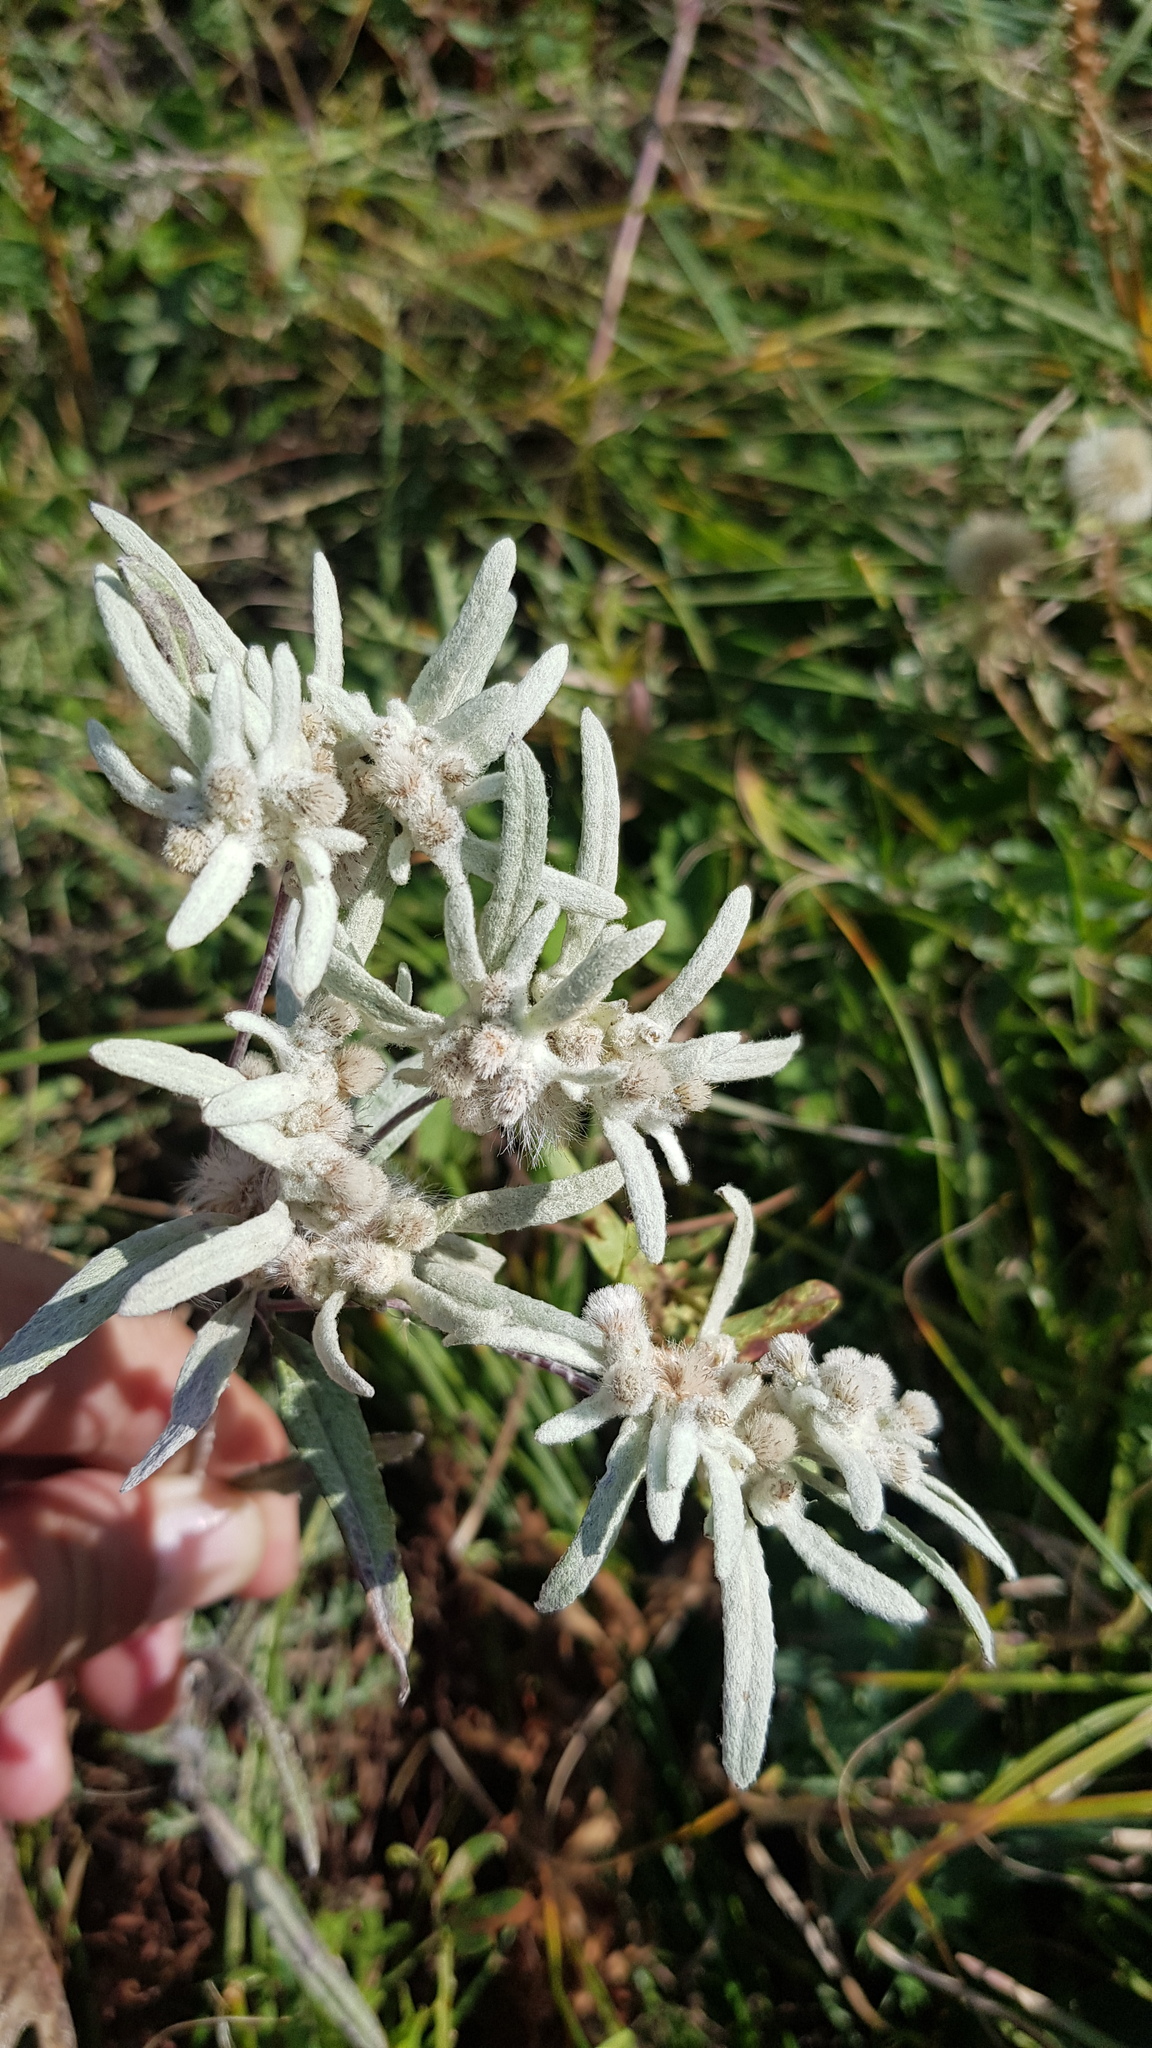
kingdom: Plantae
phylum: Tracheophyta
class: Magnoliopsida
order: Asterales
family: Asteraceae
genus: Leontopodium
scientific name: Leontopodium leontopodinum
